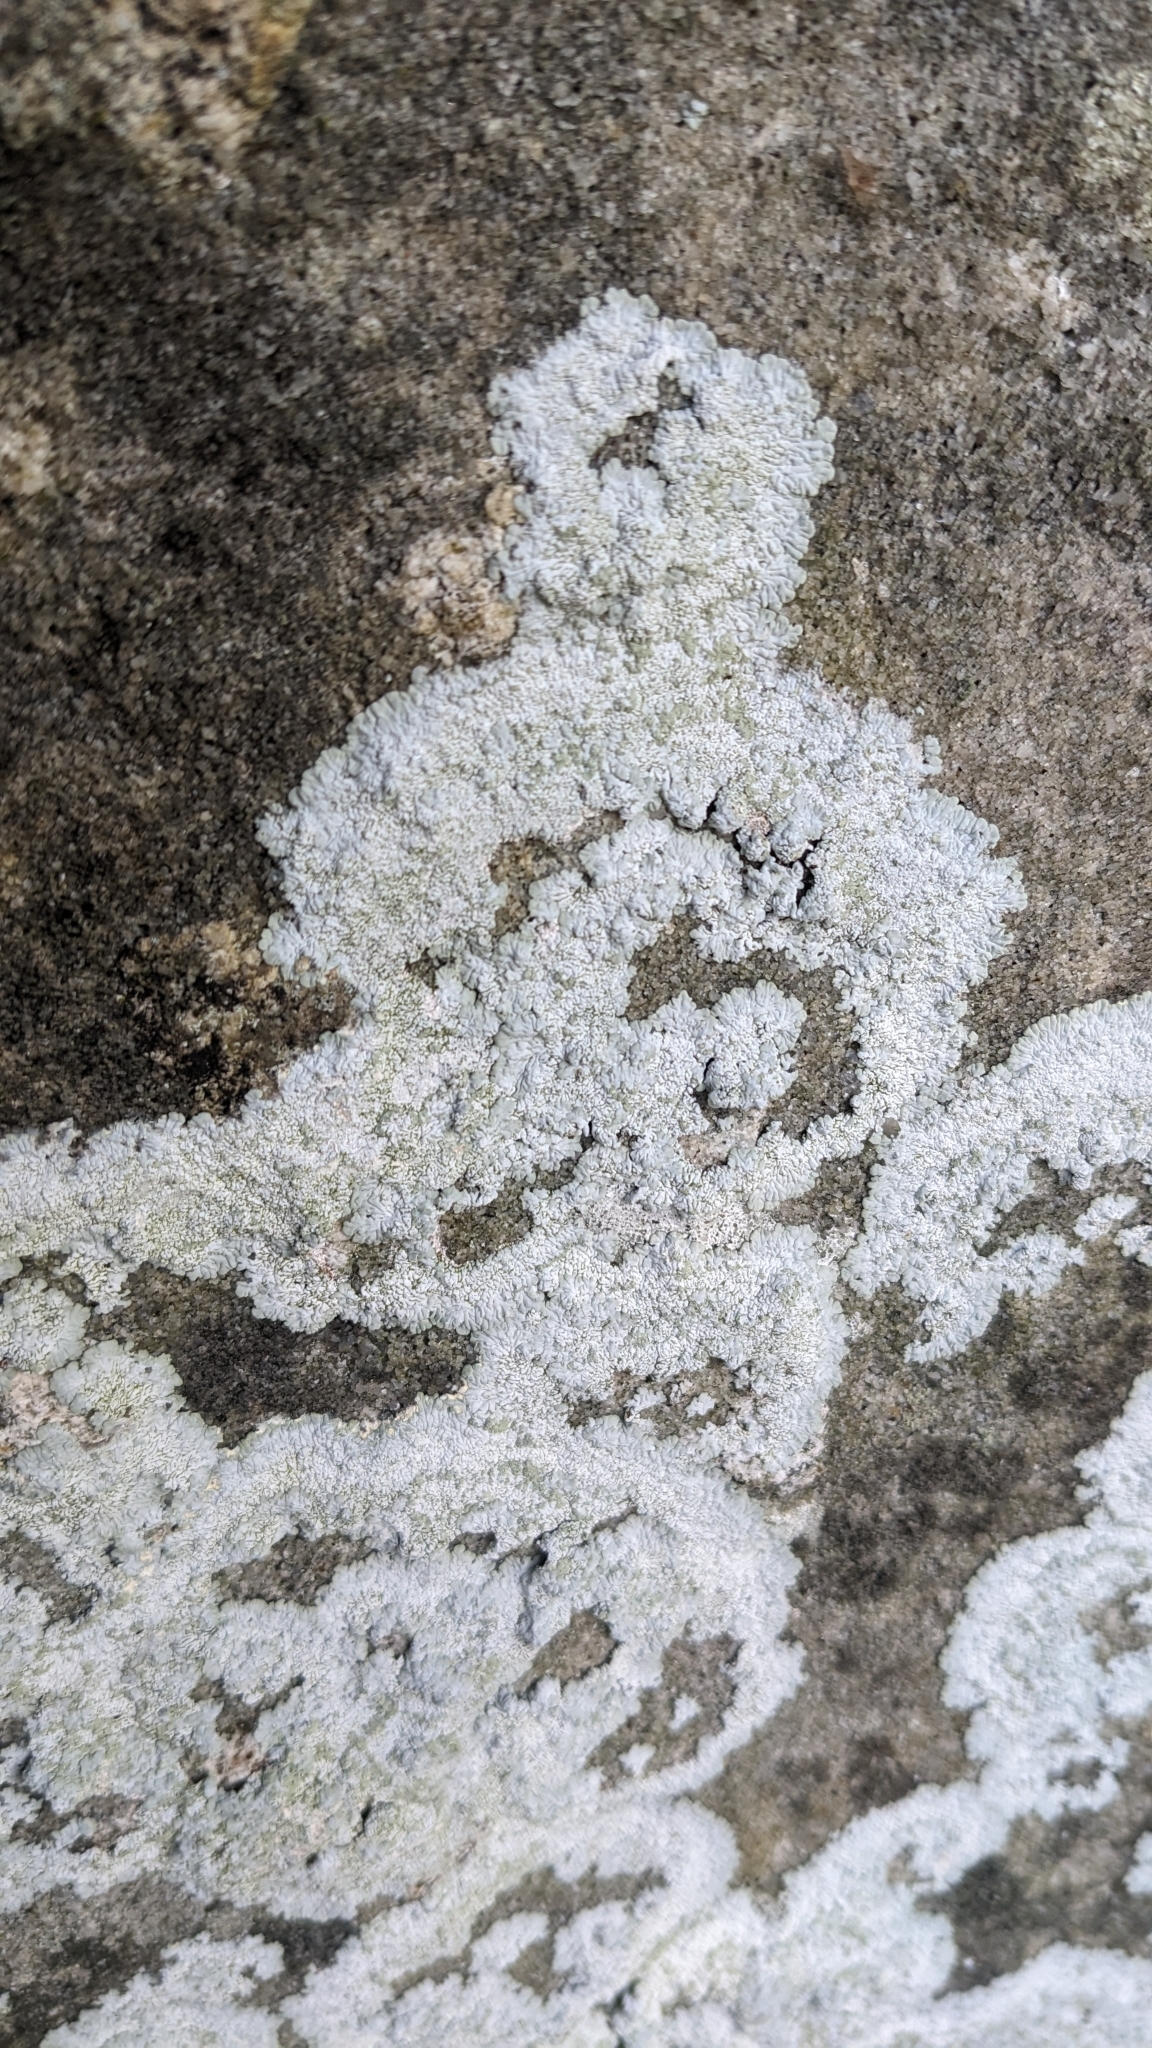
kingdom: Fungi
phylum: Ascomycota
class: Lecanoromycetes
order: Caliciales
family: Caliciaceae
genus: Diploicia
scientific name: Diploicia canescens
